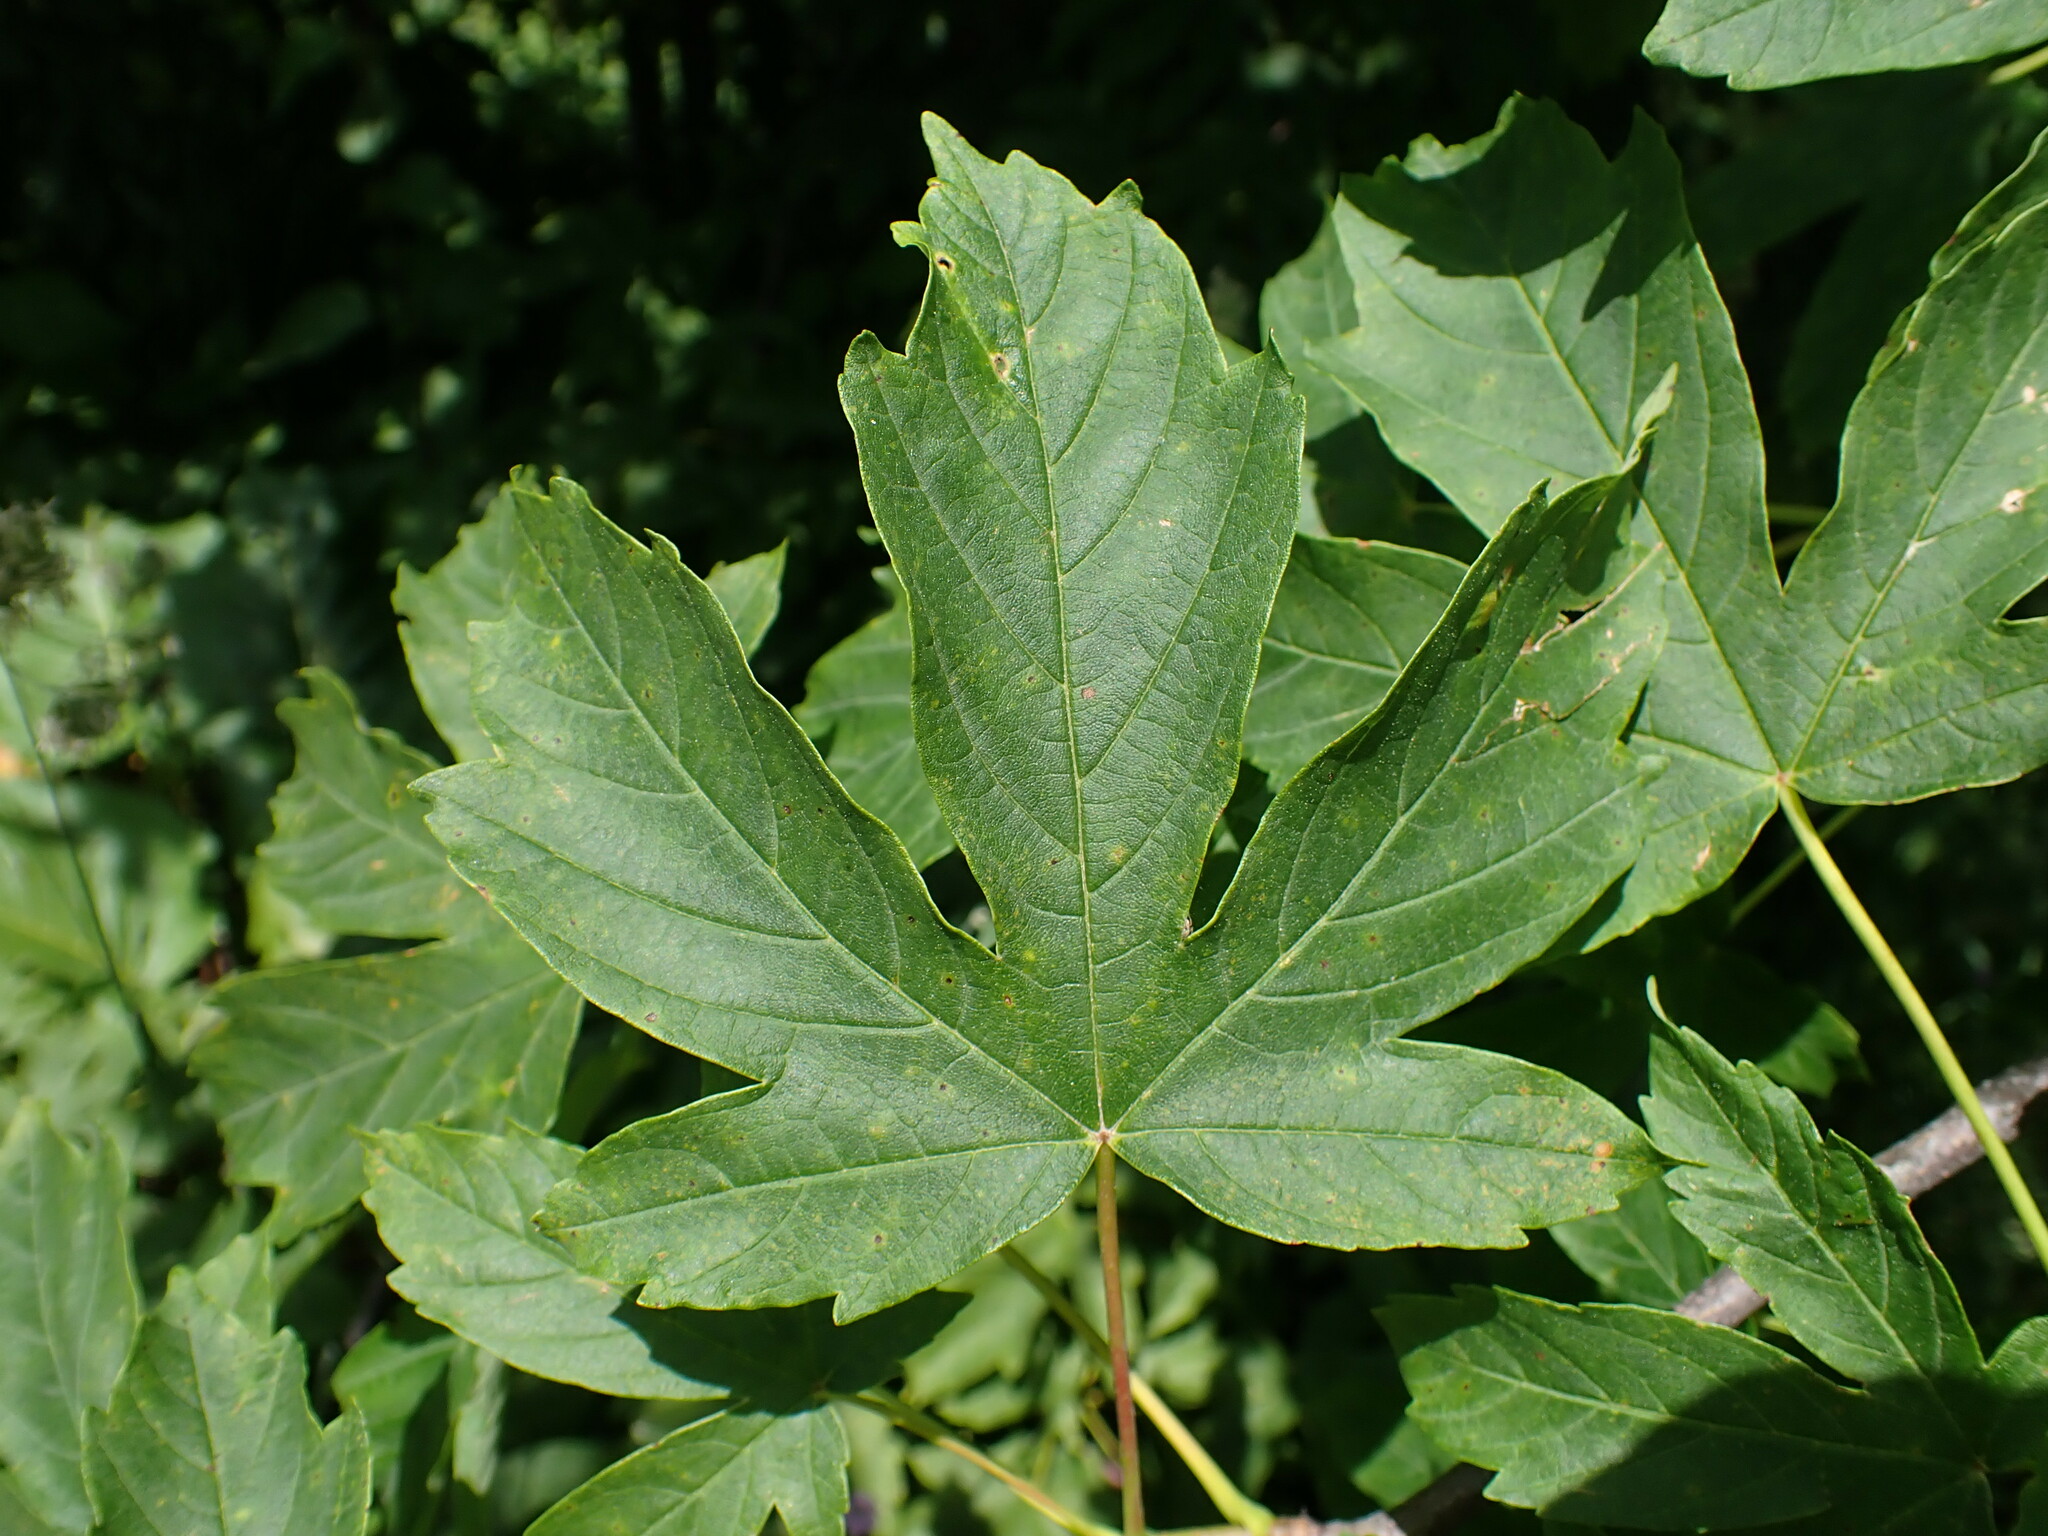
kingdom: Plantae
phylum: Tracheophyta
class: Magnoliopsida
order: Sapindales
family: Sapindaceae
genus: Acer
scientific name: Acer heldreichii
